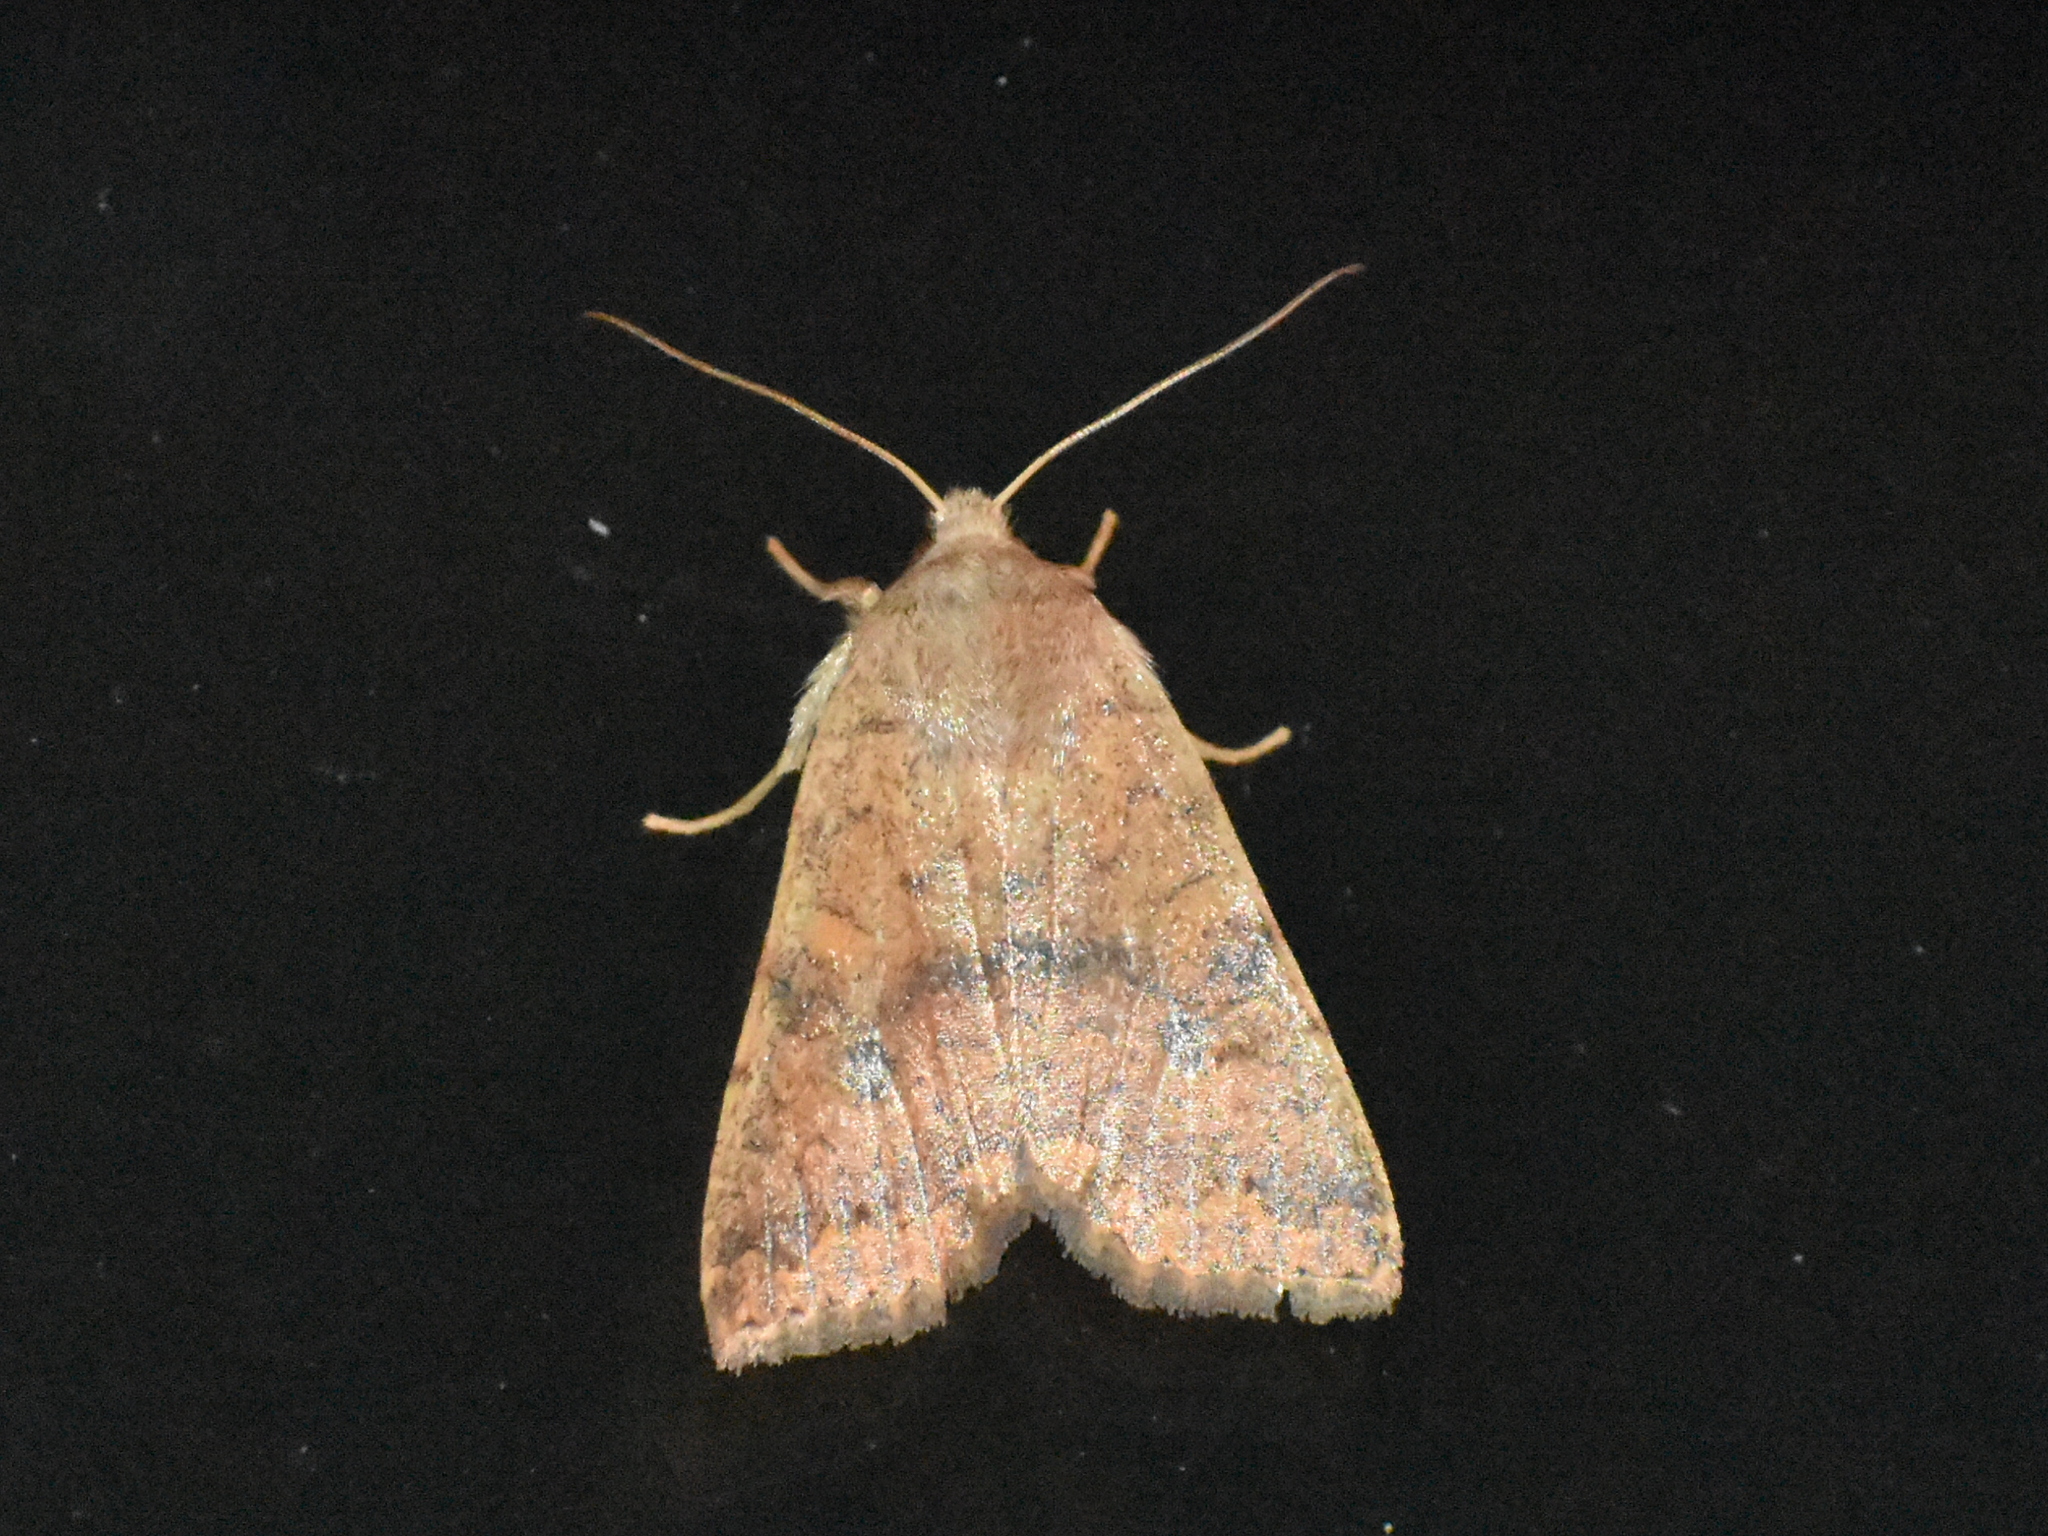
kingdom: Animalia
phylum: Arthropoda
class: Insecta
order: Lepidoptera
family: Noctuidae
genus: Agrochola
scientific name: Agrochola bicolorago
